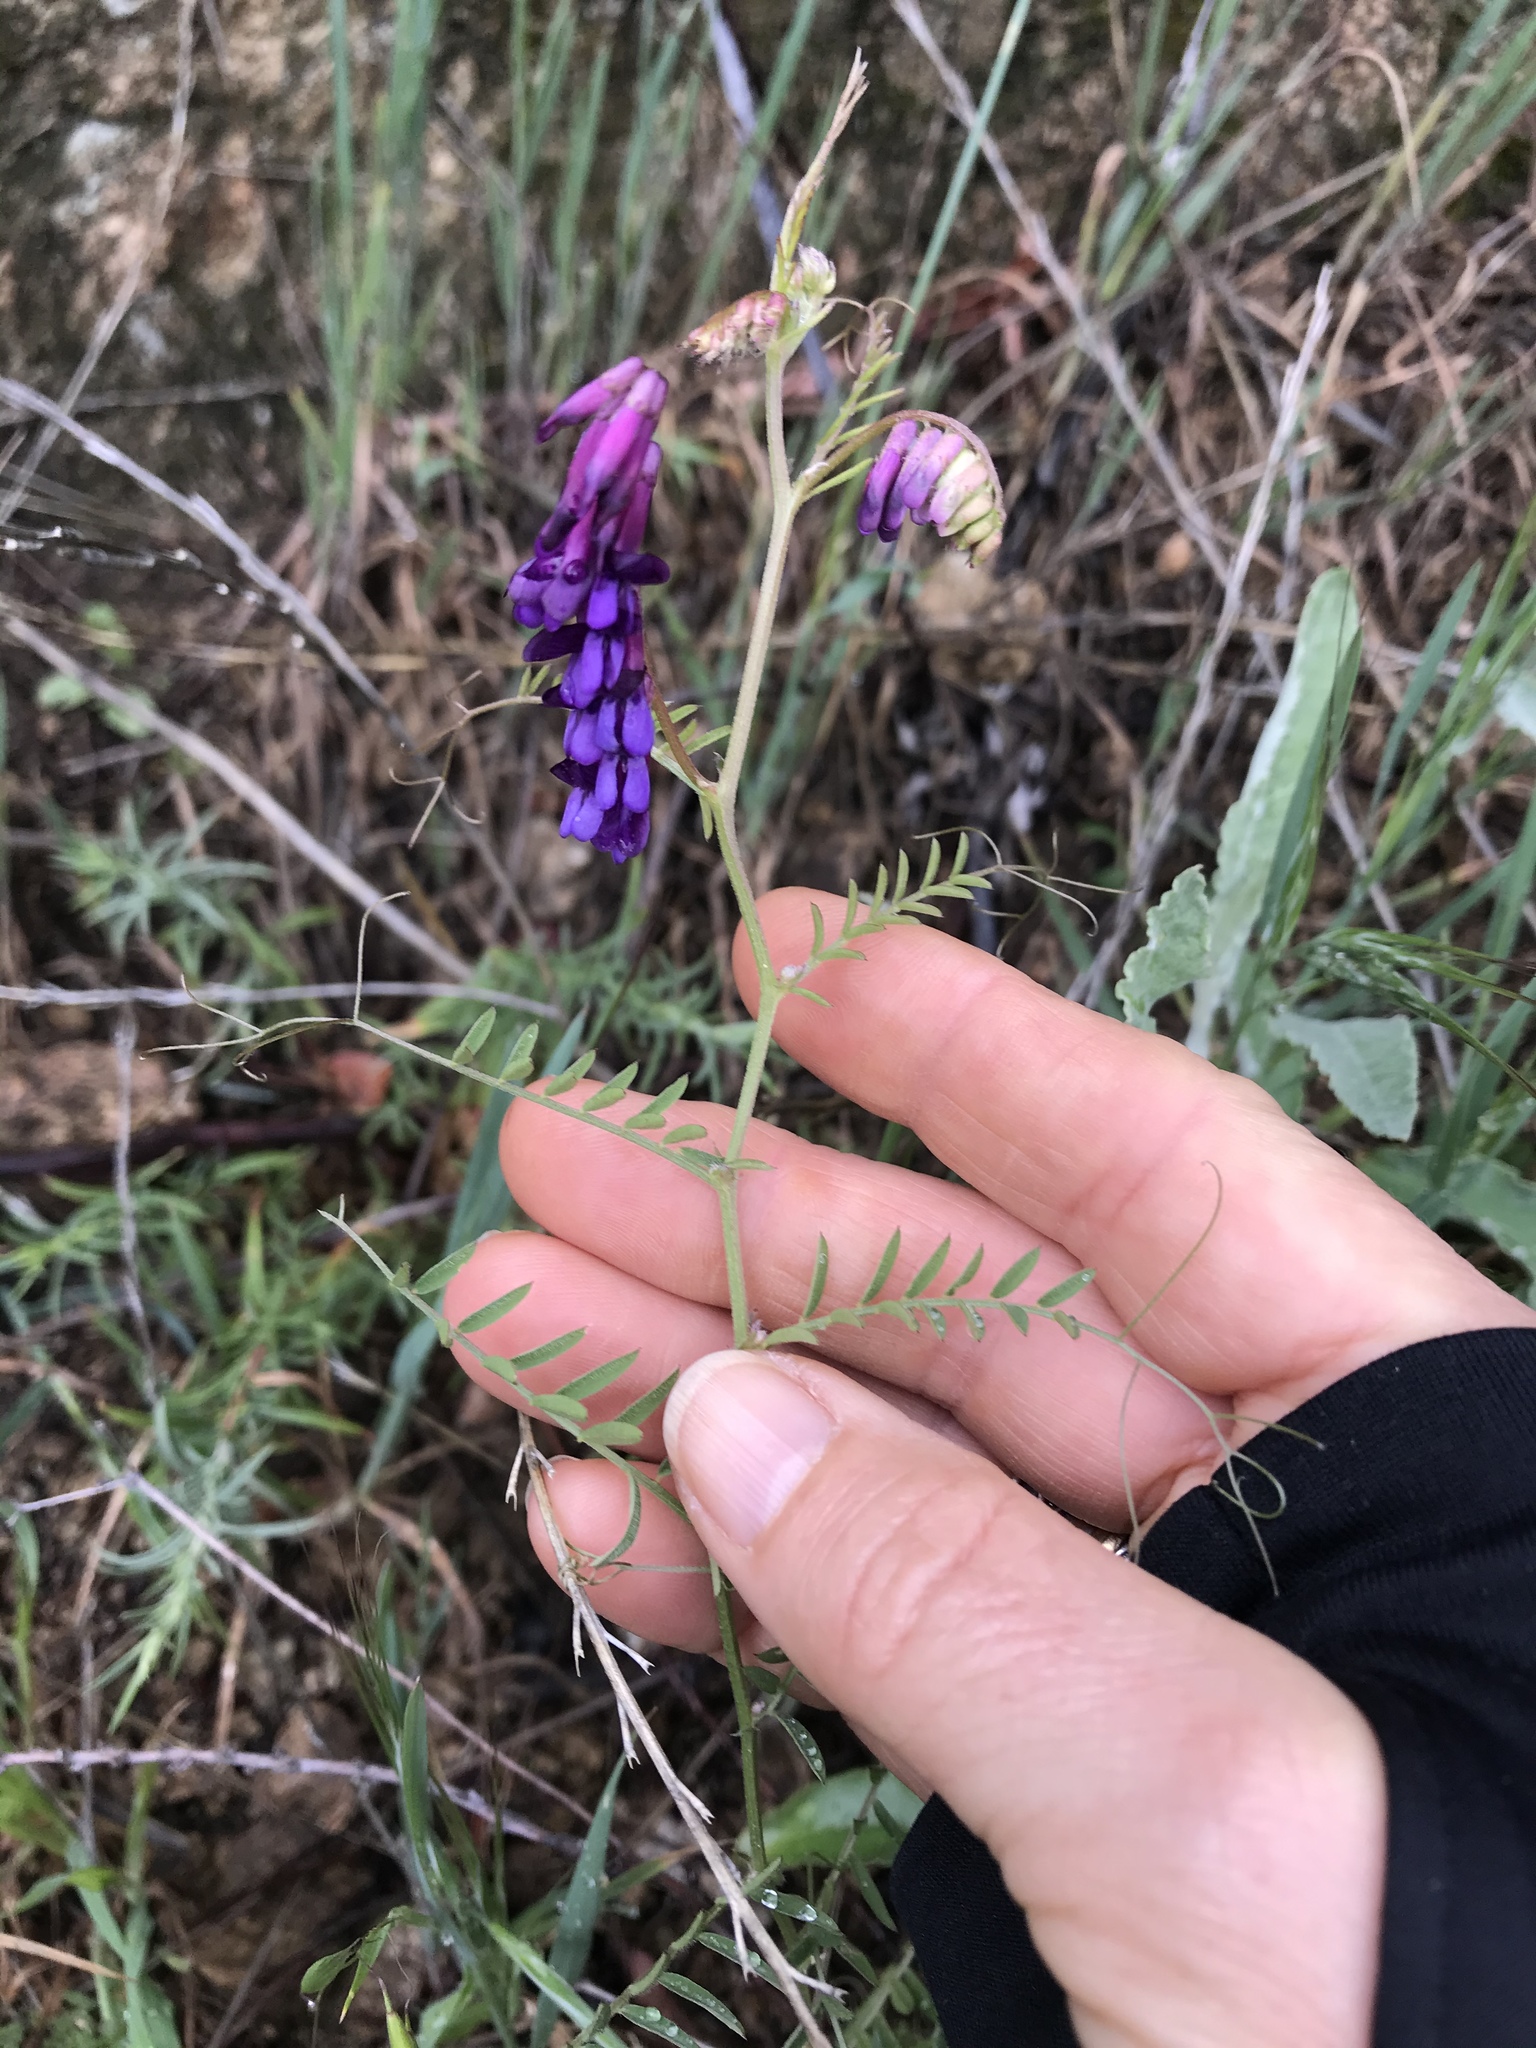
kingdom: Plantae
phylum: Tracheophyta
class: Magnoliopsida
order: Fabales
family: Fabaceae
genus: Vicia
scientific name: Vicia villosa
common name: Fodder vetch
